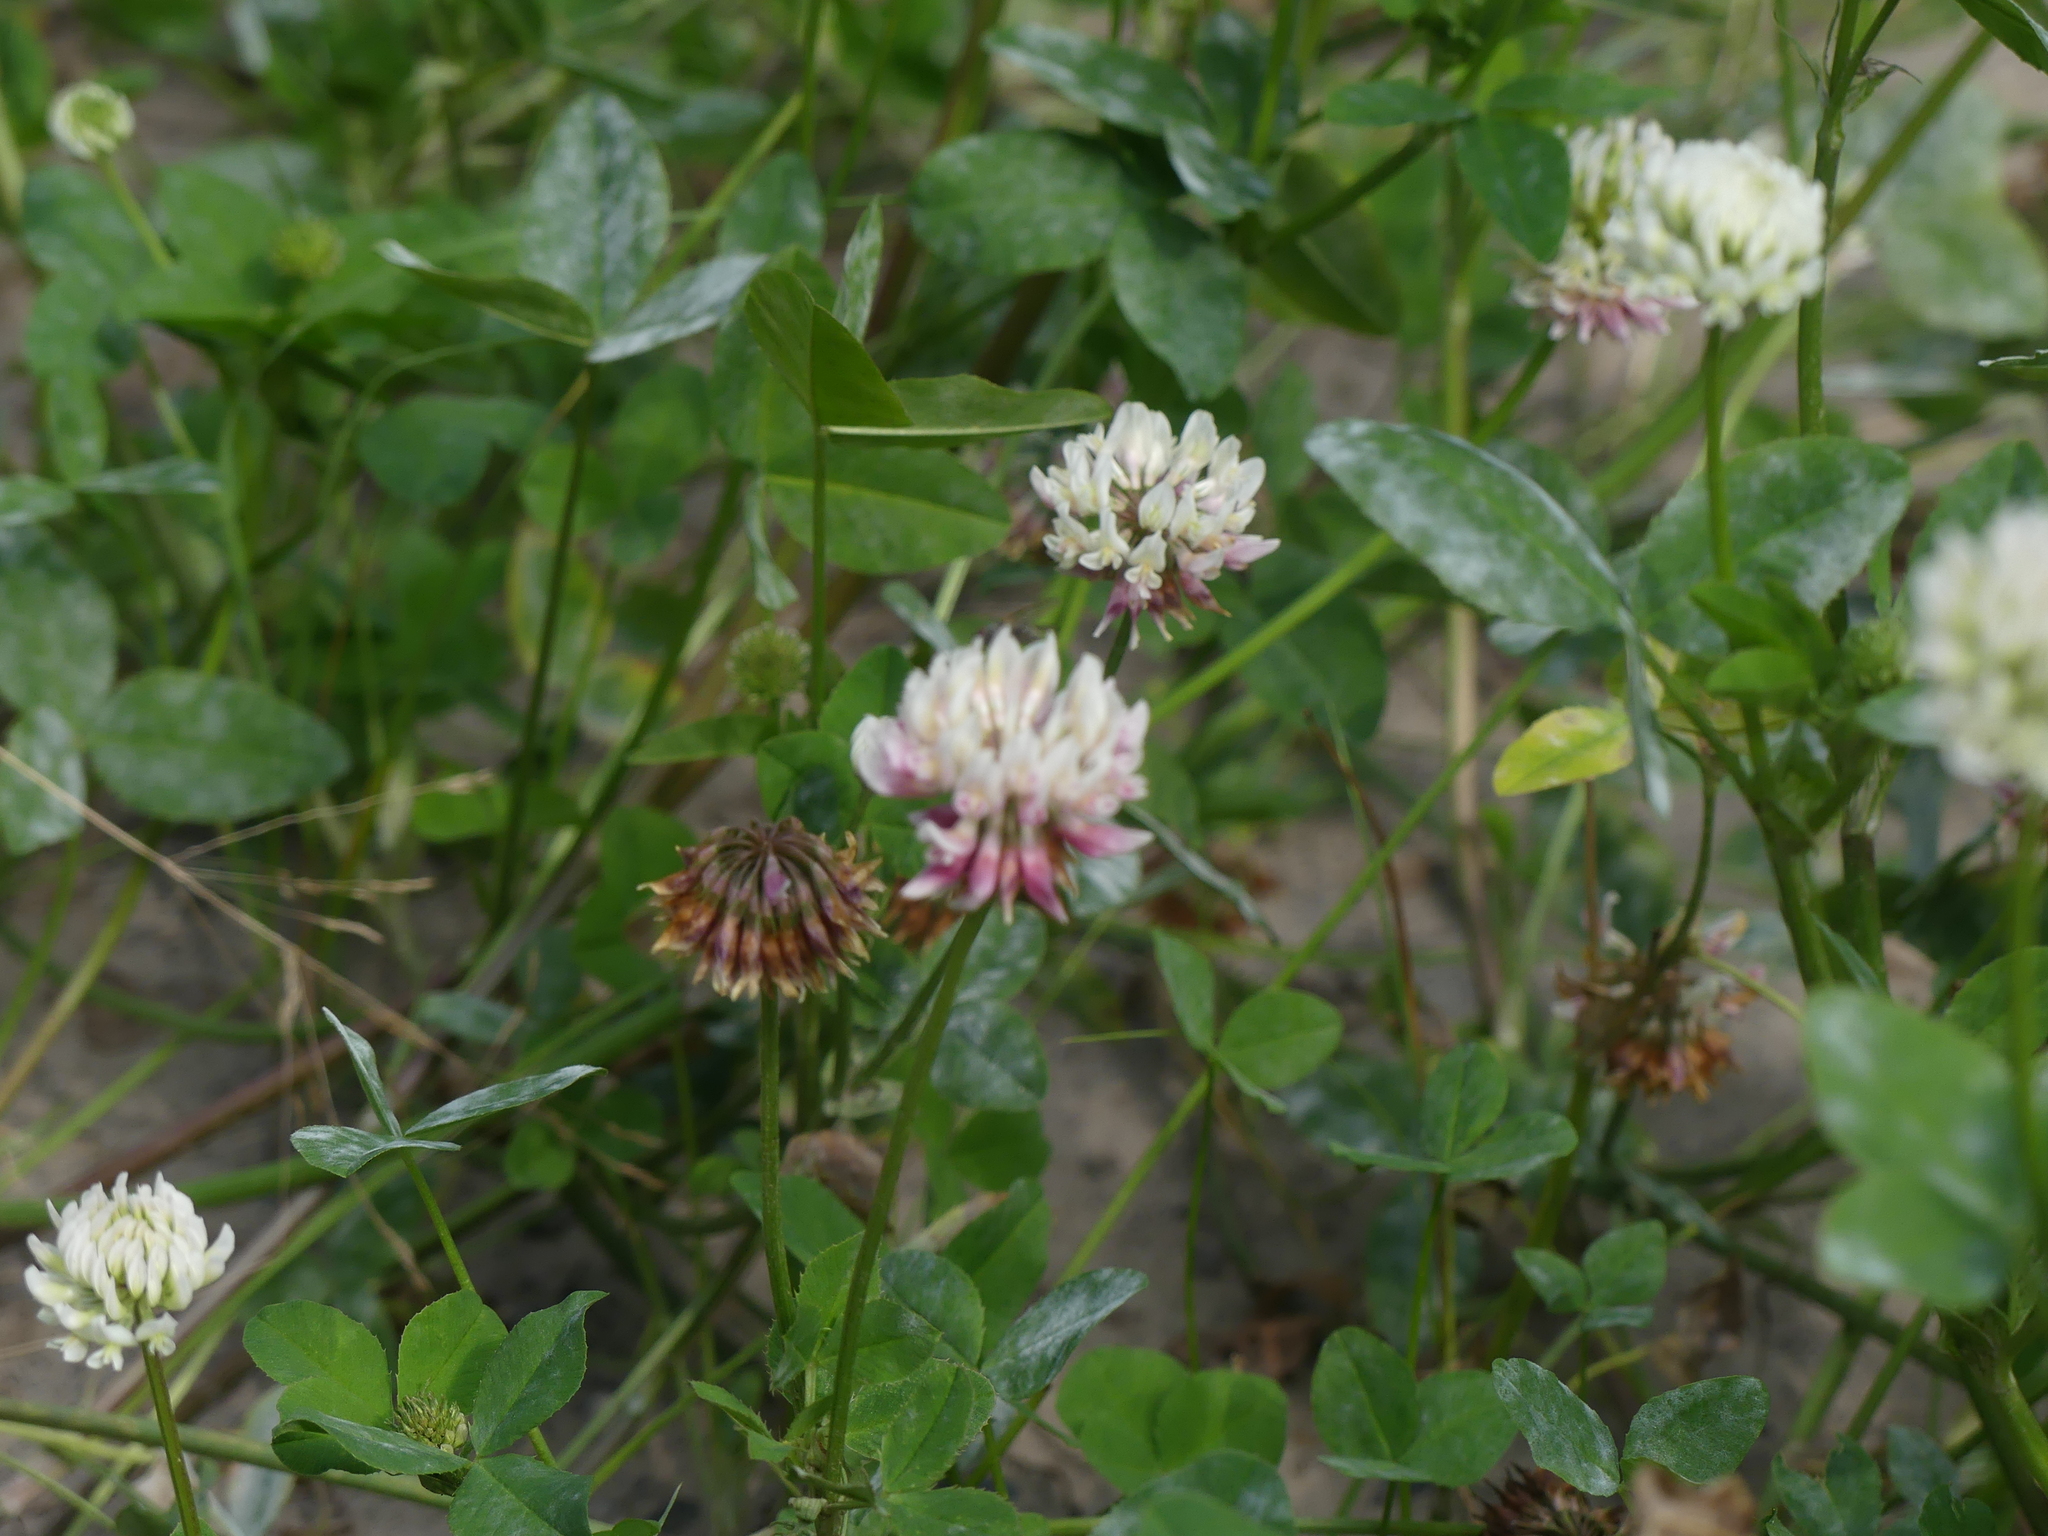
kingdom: Plantae
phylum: Tracheophyta
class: Magnoliopsida
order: Fabales
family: Fabaceae
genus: Trifolium
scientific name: Trifolium hybridum
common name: Alsike clover
